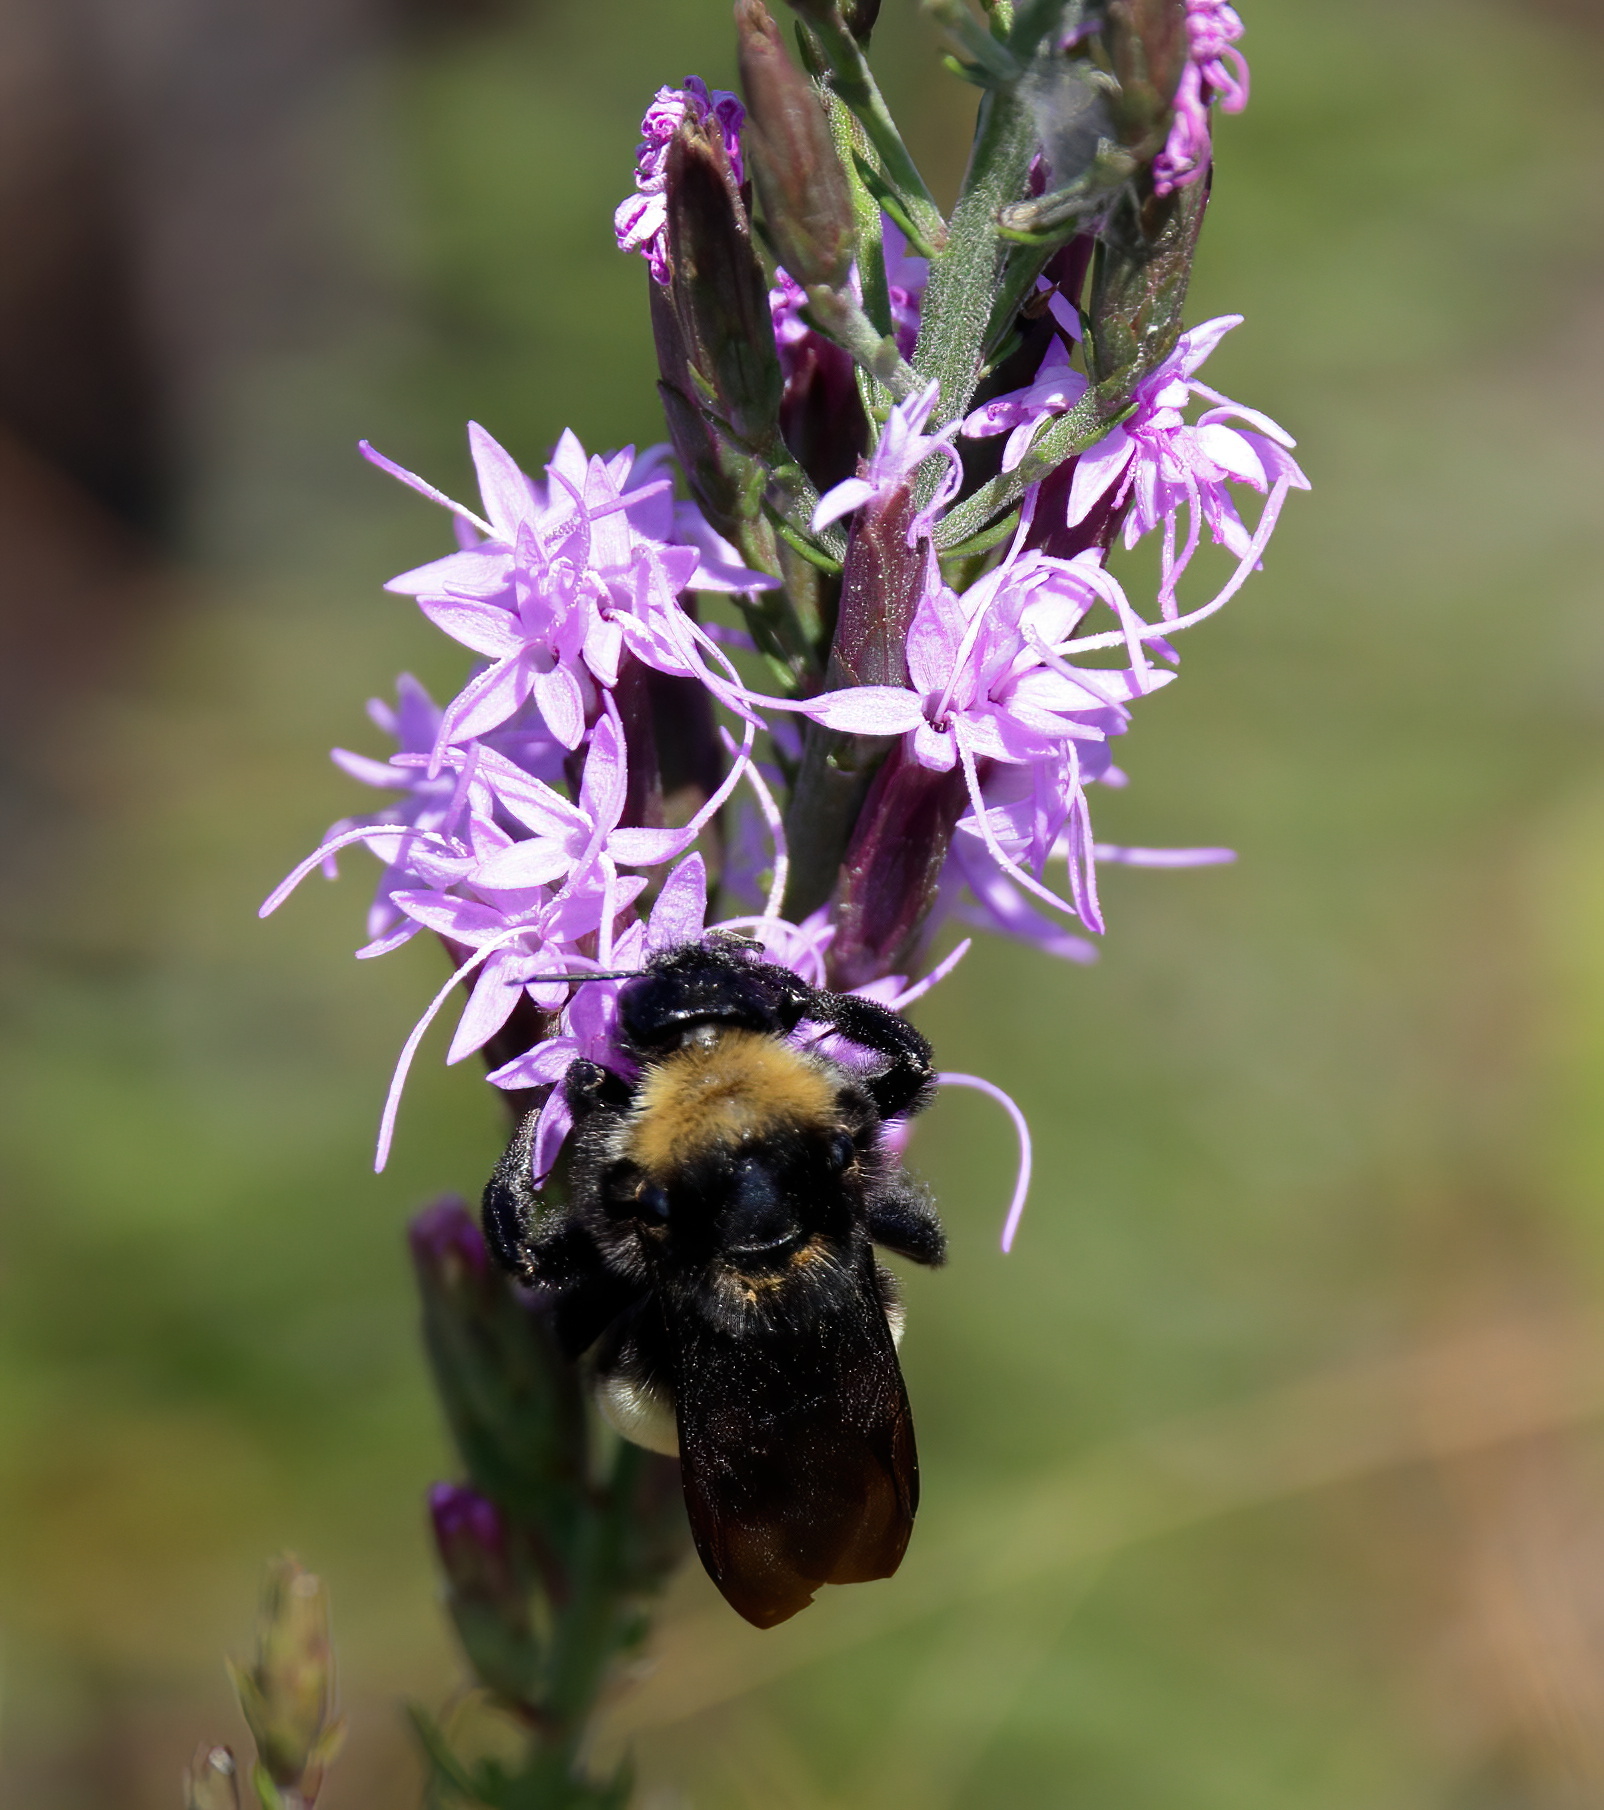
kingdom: Animalia
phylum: Arthropoda
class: Insecta
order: Hymenoptera
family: Apidae
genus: Bombus
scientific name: Bombus pensylvanicus
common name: Bumble bee
